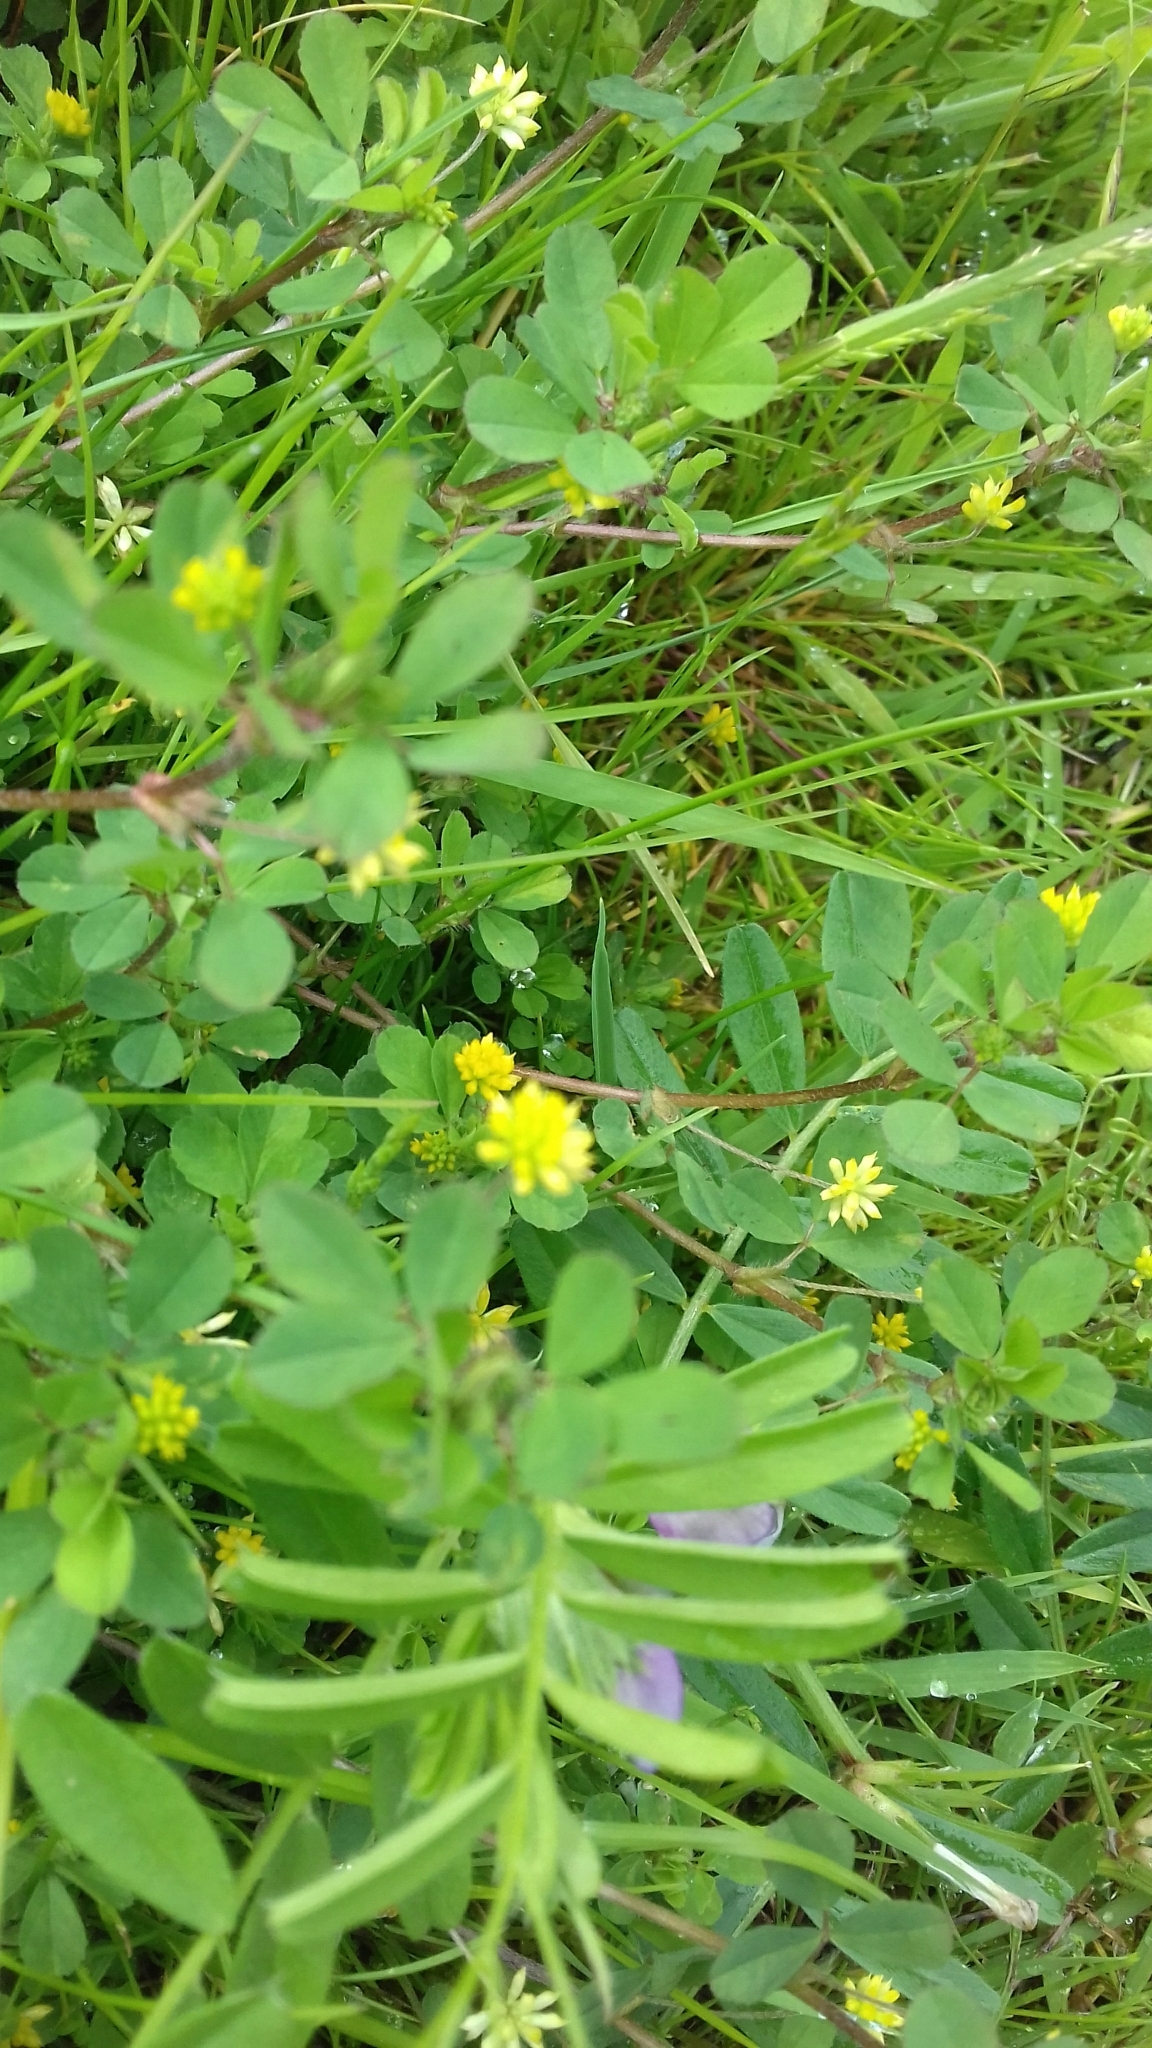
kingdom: Plantae
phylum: Tracheophyta
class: Magnoliopsida
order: Fabales
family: Fabaceae
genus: Trifolium
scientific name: Trifolium dubium
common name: Suckling clover
